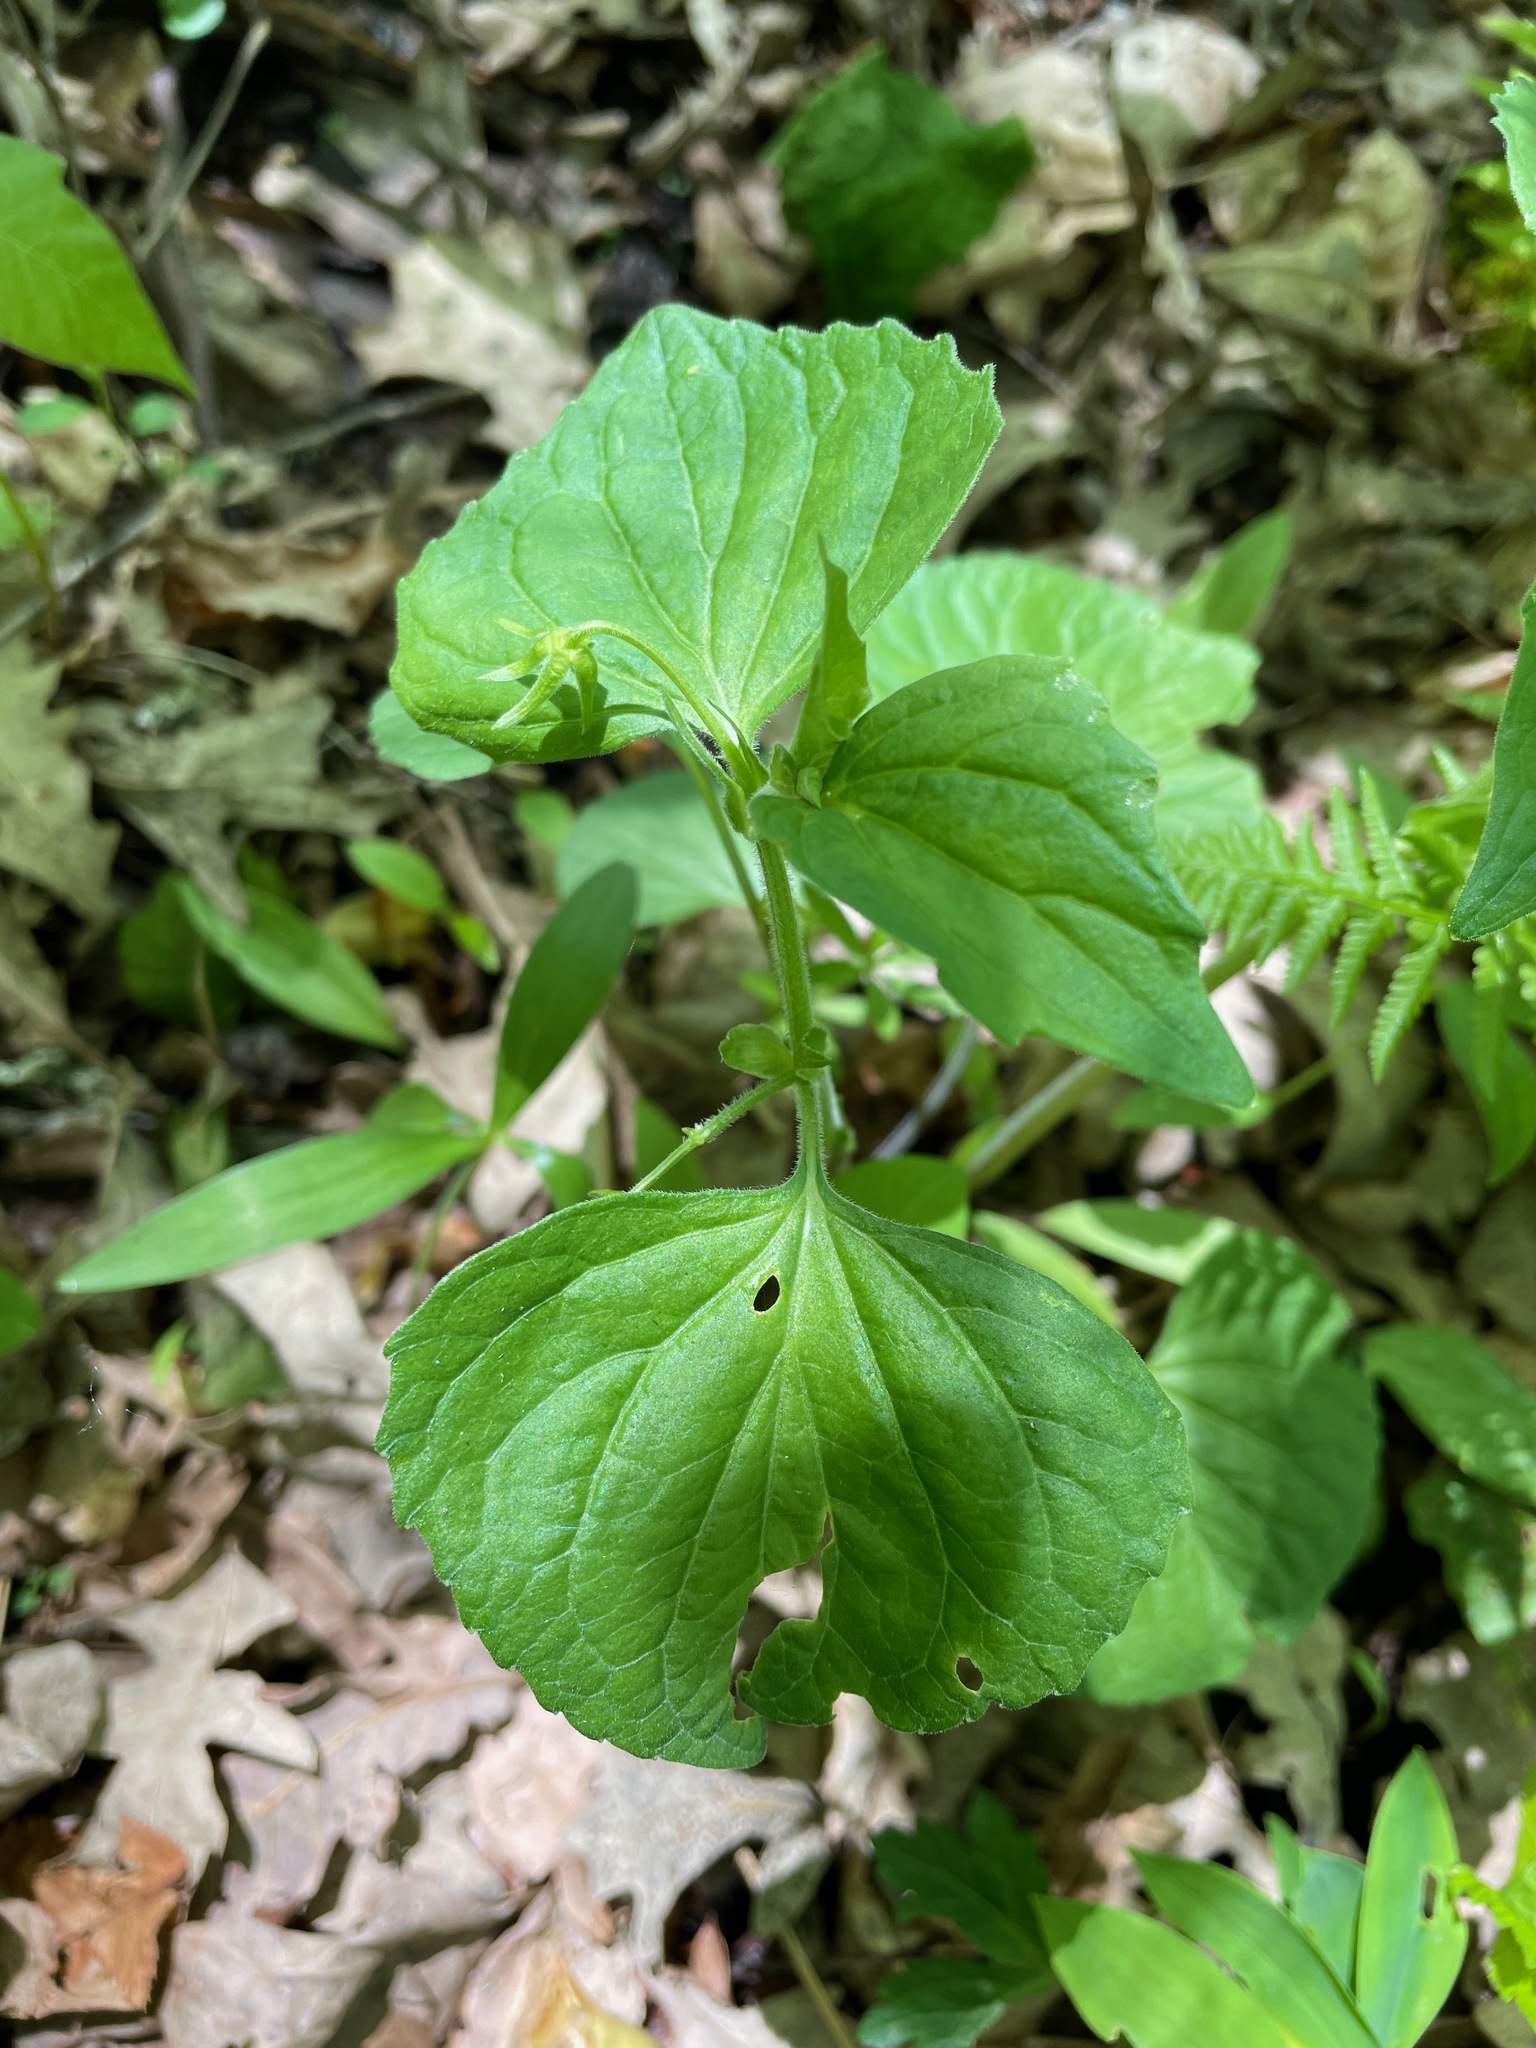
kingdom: Plantae
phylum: Tracheophyta
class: Magnoliopsida
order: Malpighiales
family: Violaceae
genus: Viola
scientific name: Viola eriocarpa
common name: Smooth yellow violet
